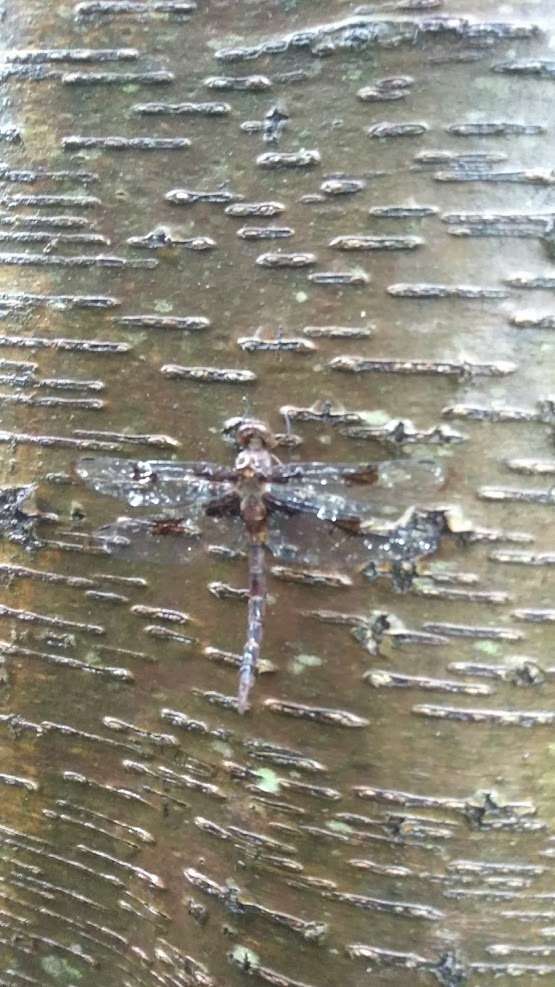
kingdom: Animalia
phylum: Arthropoda
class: Insecta
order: Odonata
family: Corduliidae
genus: Epitheca
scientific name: Epitheca princeps
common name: Prince baskettail
